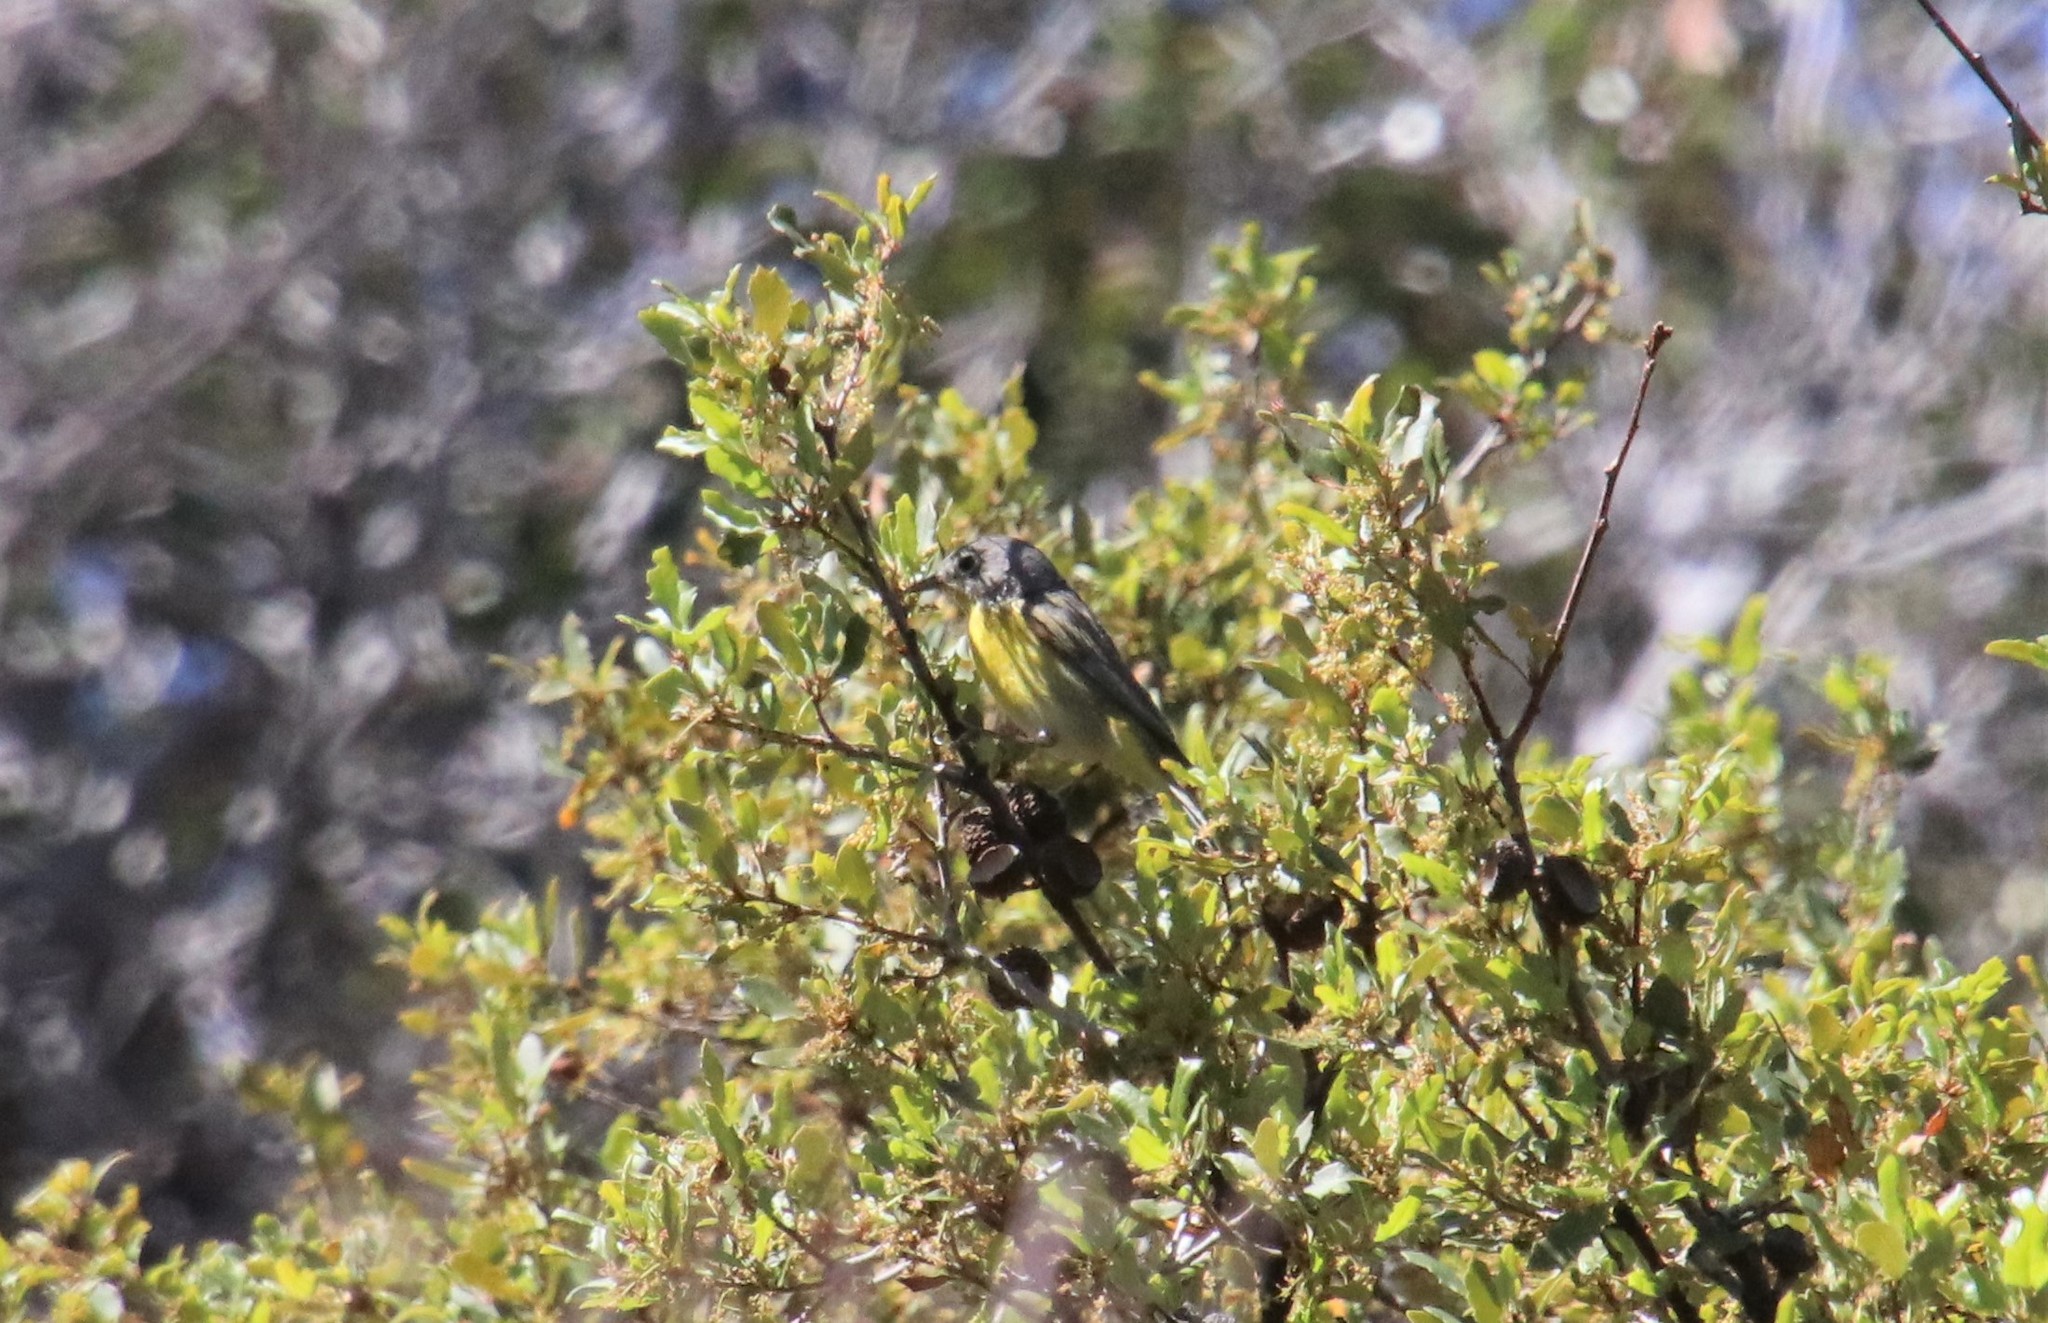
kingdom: Animalia
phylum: Chordata
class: Aves
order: Passeriformes
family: Parulidae
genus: Leiothlypis
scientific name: Leiothlypis ruficapilla
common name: Nashville warbler
